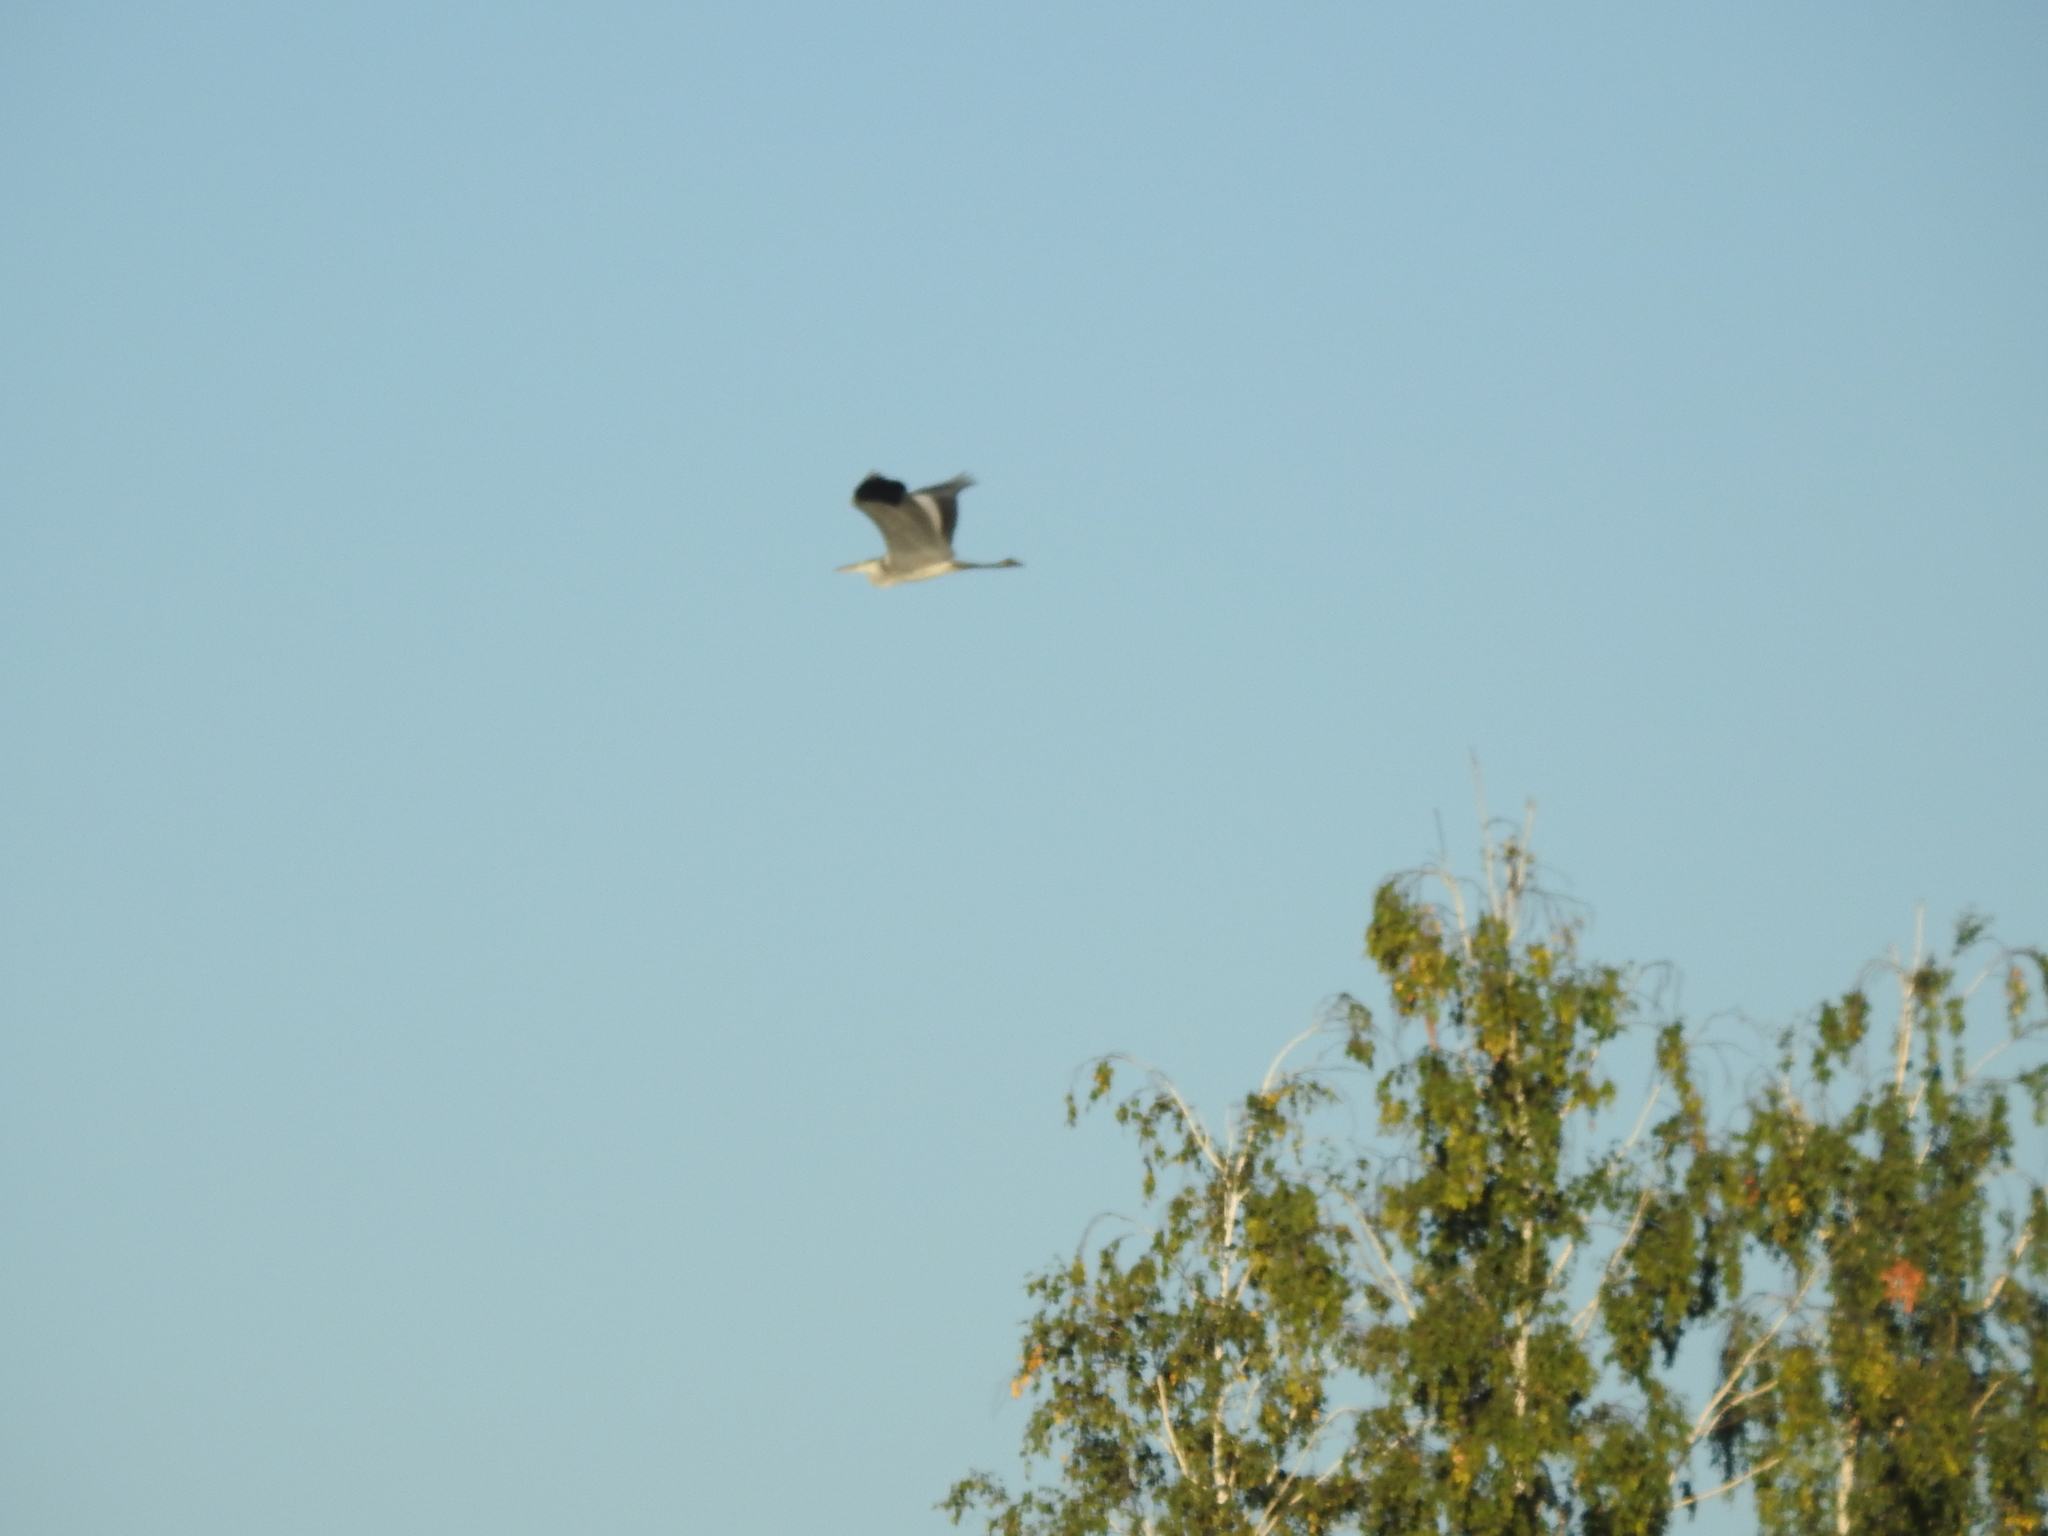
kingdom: Animalia
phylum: Chordata
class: Aves
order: Pelecaniformes
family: Ardeidae
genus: Ardea
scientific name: Ardea cinerea
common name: Grey heron
